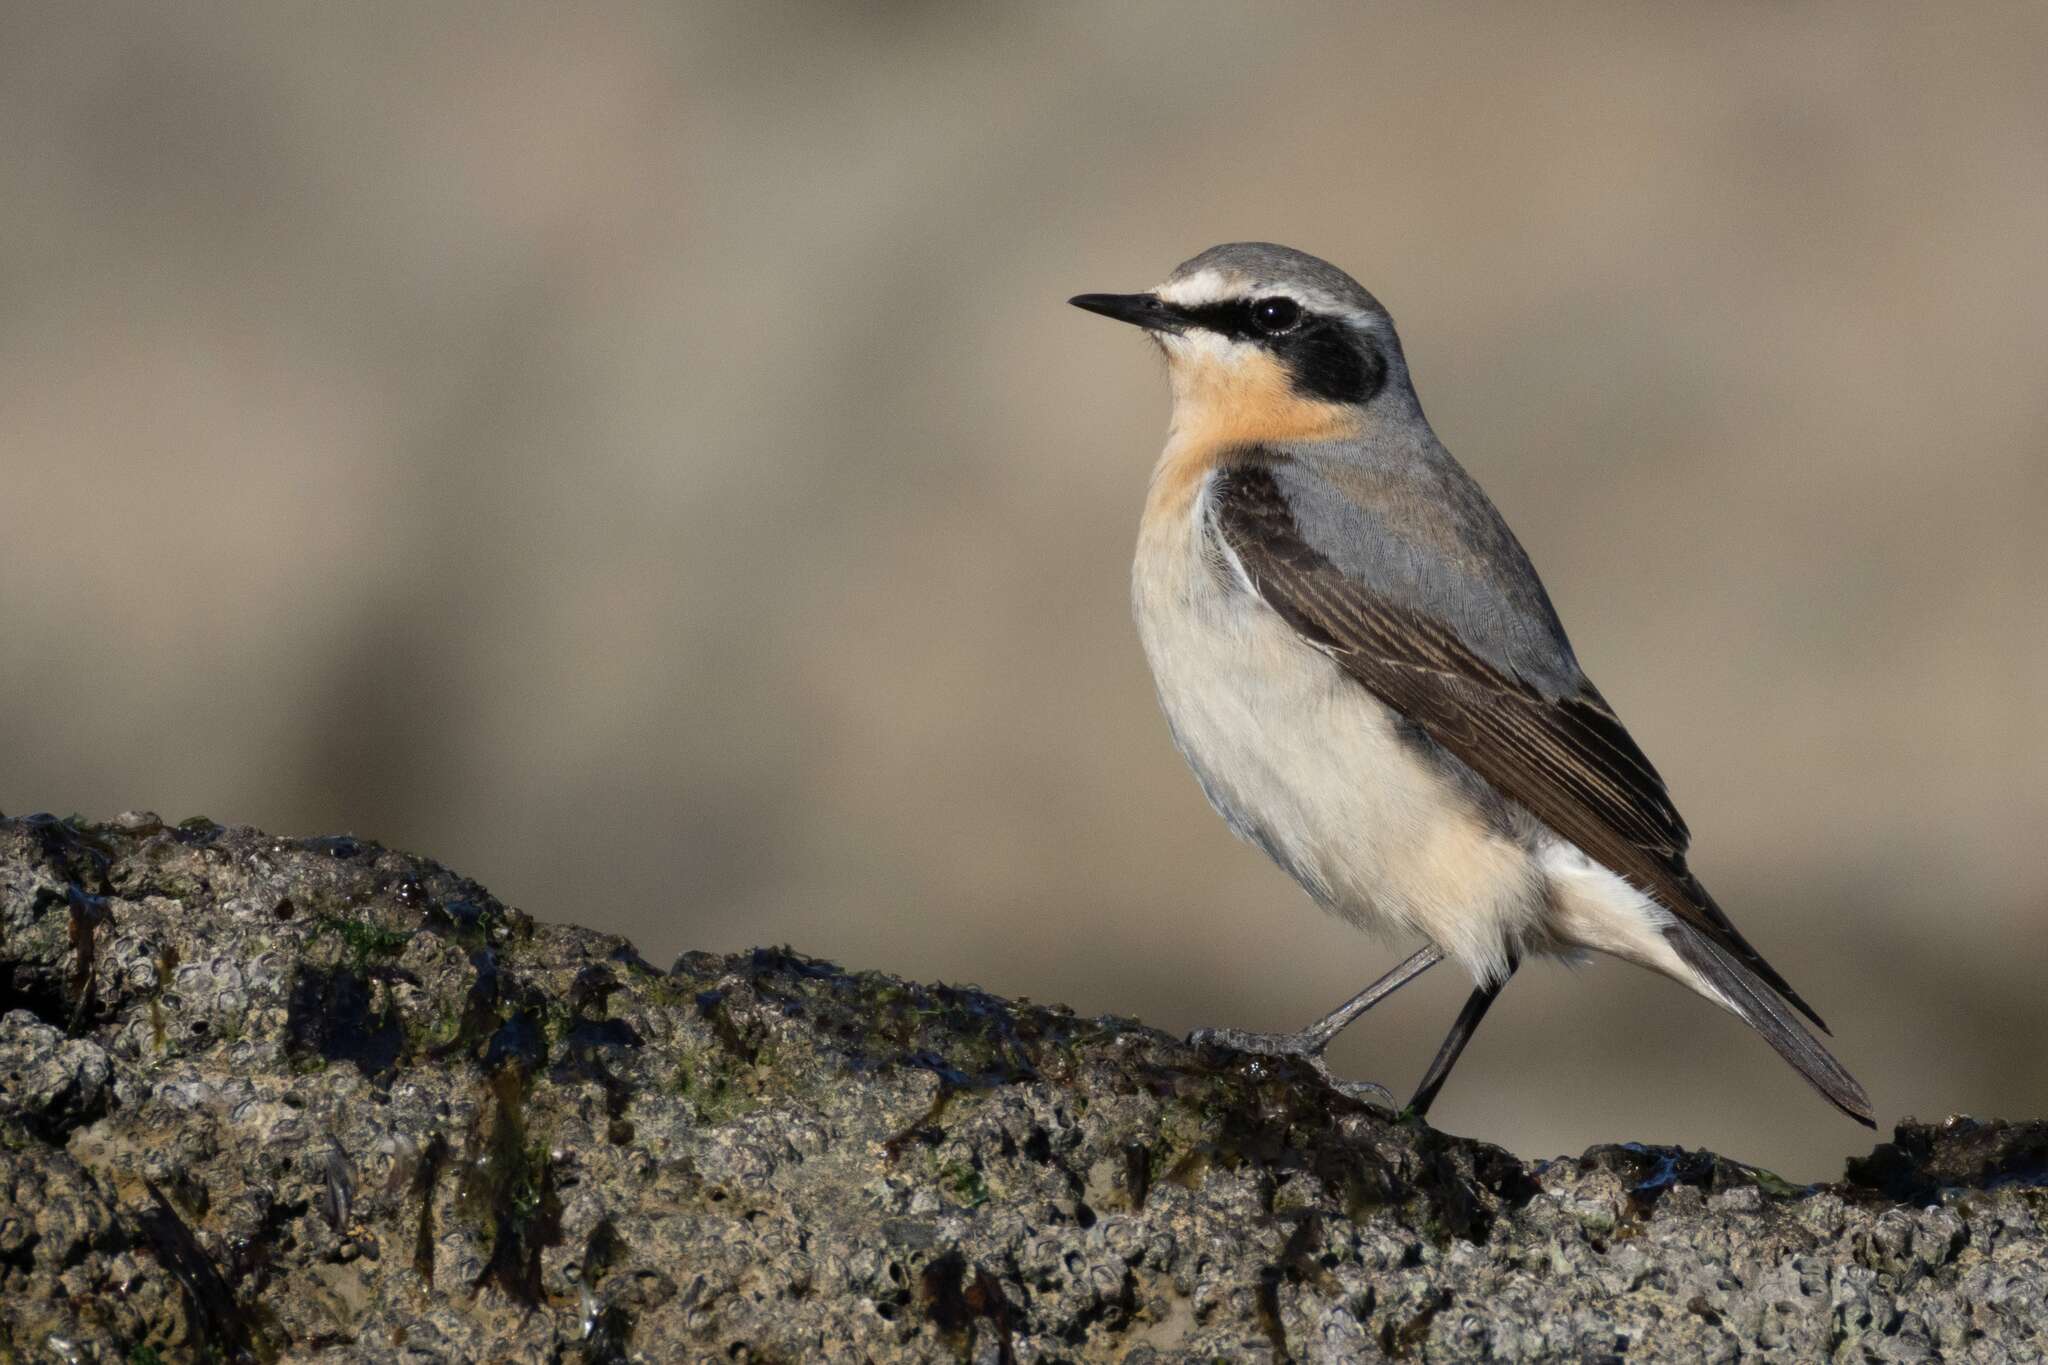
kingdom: Animalia
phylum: Chordata
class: Aves
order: Passeriformes
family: Muscicapidae
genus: Oenanthe
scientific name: Oenanthe oenanthe
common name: Northern wheatear
